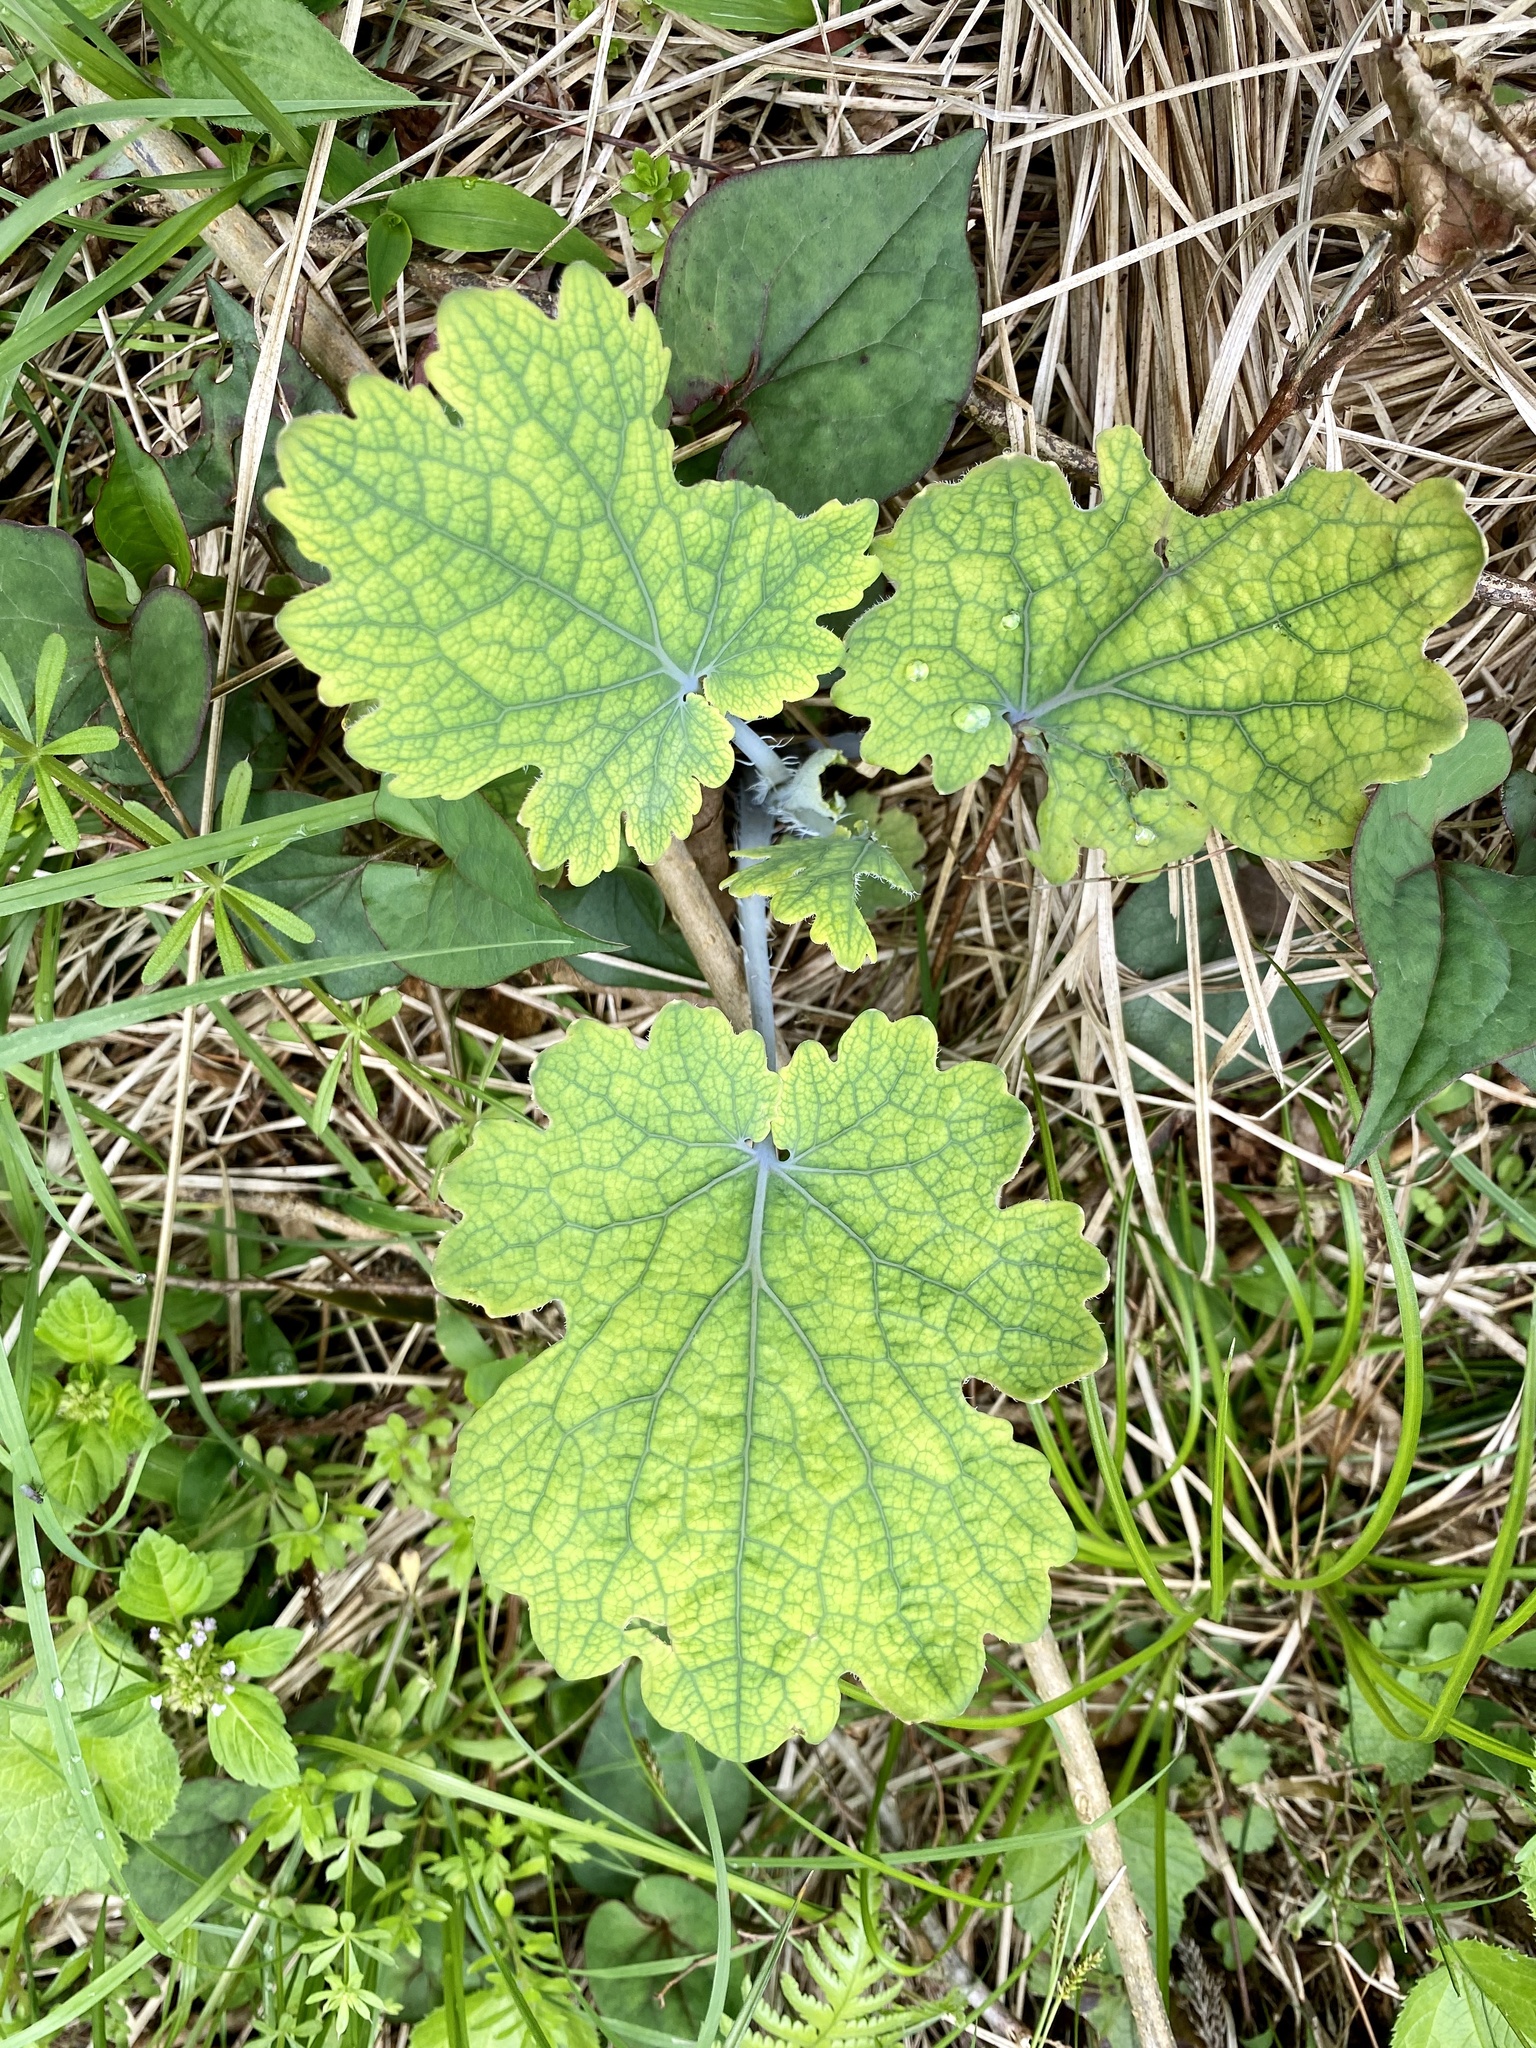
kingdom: Plantae
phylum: Tracheophyta
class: Magnoliopsida
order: Ranunculales
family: Papaveraceae
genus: Macleaya
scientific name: Macleaya cordata
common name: Plume poppy
